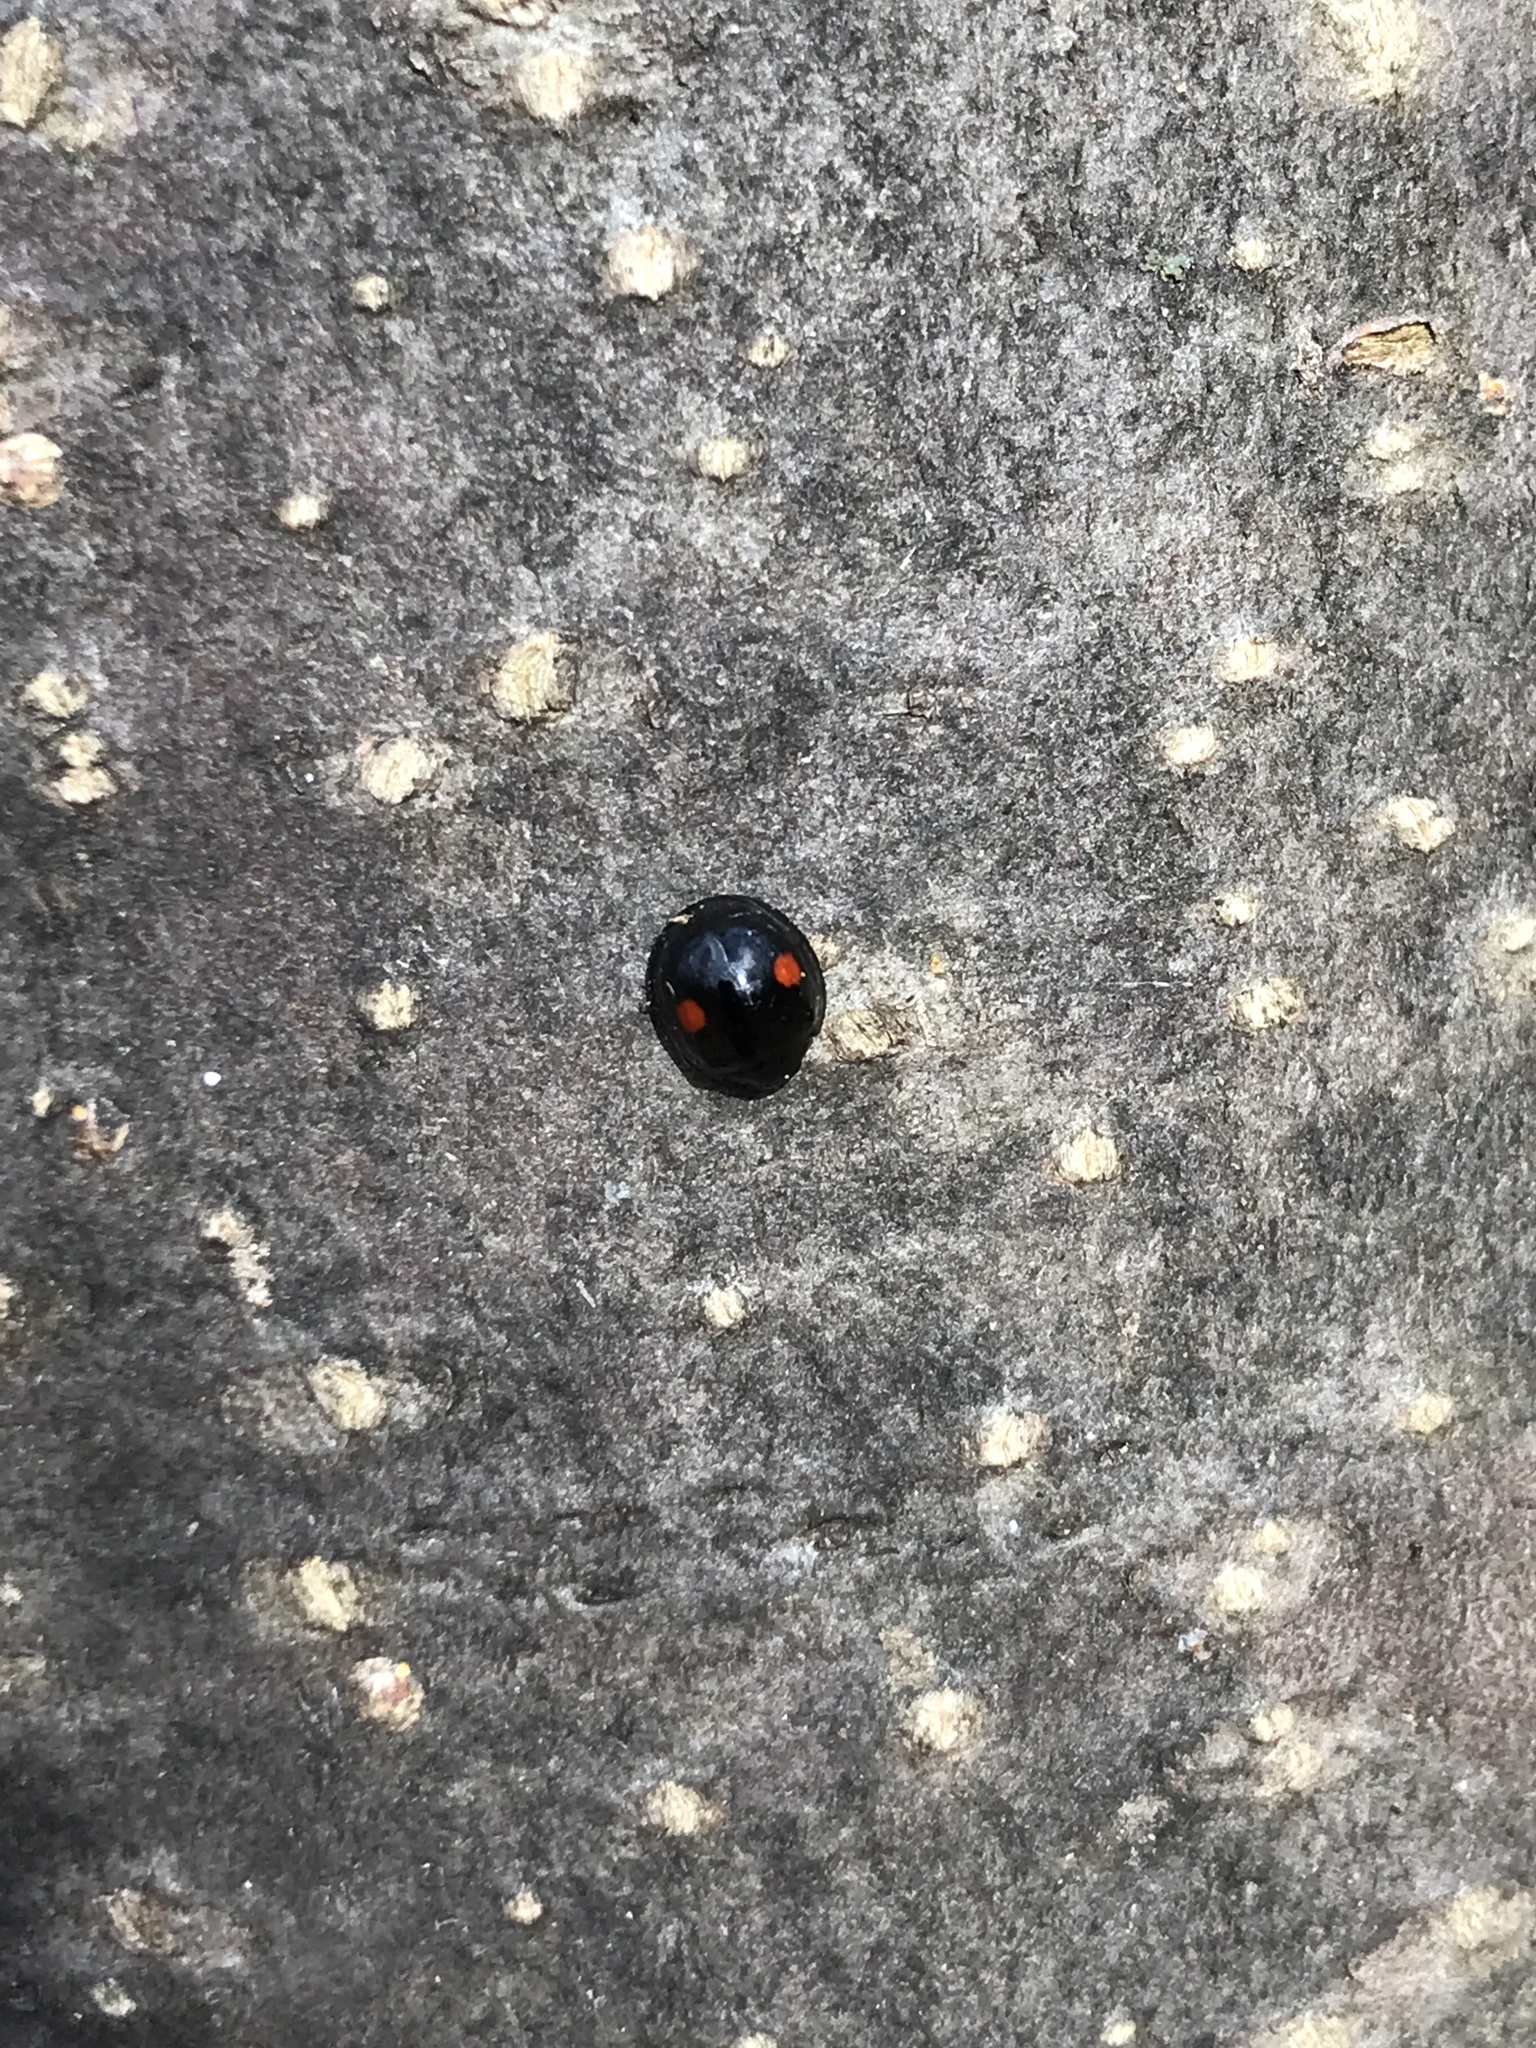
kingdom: Animalia
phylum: Arthropoda
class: Insecta
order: Coleoptera
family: Coccinellidae
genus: Chilocorus
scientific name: Chilocorus stigma
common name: Twicestabbed lady beetle
